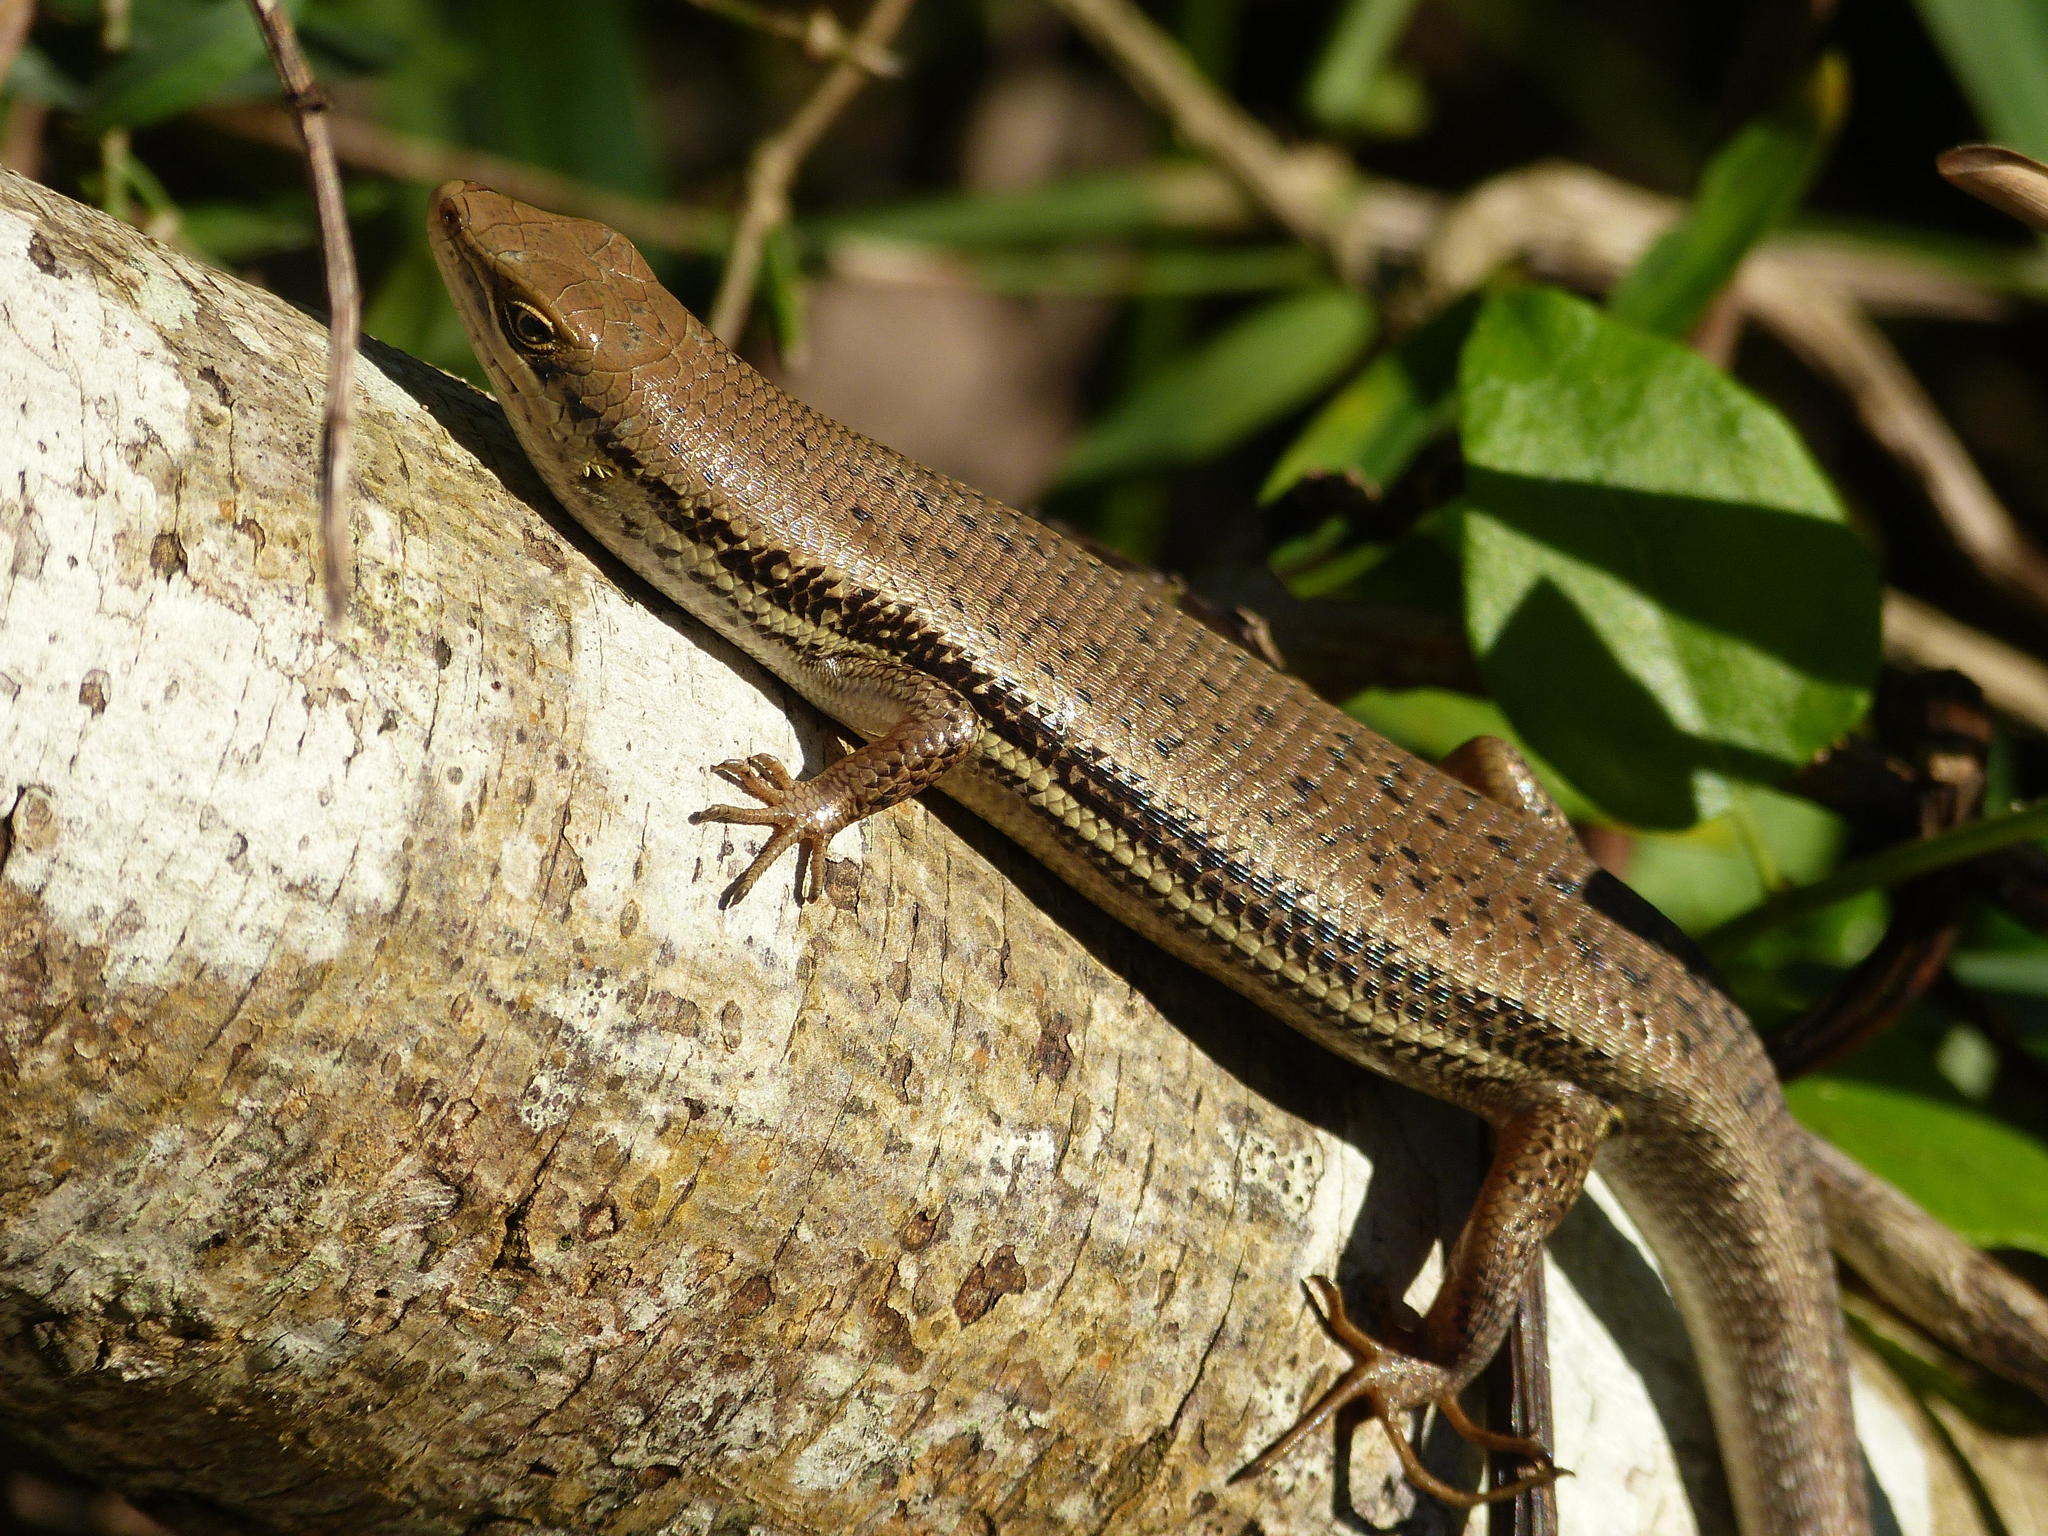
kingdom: Animalia
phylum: Chordata
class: Squamata
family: Scincidae
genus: Trachylepis
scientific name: Trachylepis depressa
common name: Eastern coastal skink
